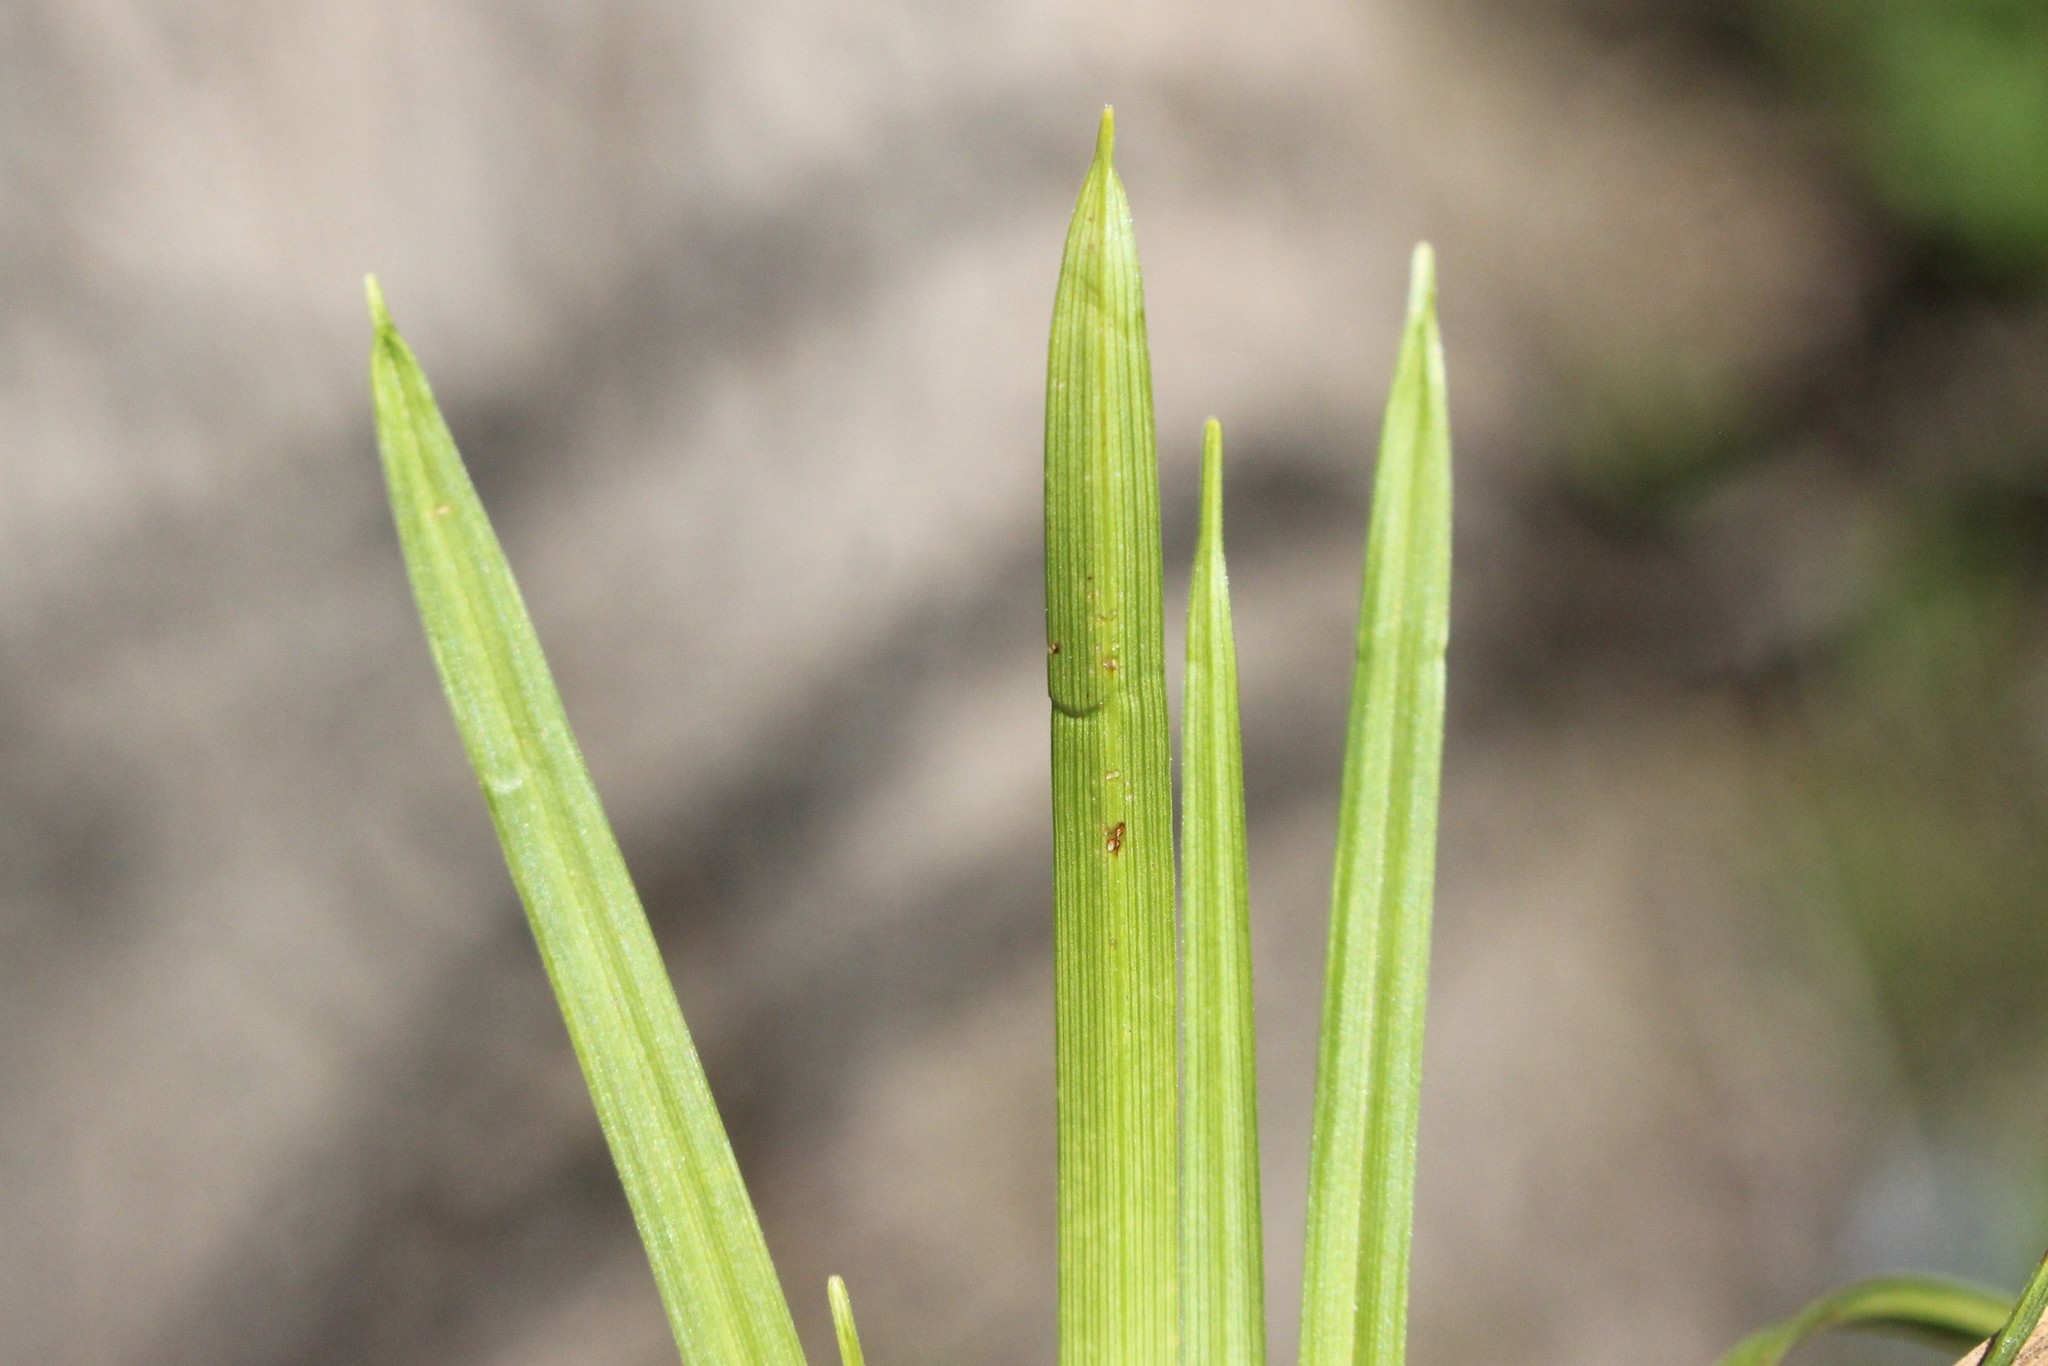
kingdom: Plantae
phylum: Tracheophyta
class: Liliopsida
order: Poales
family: Cyperaceae
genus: Carex
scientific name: Carex pedunculata
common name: Pedunculate sedge
